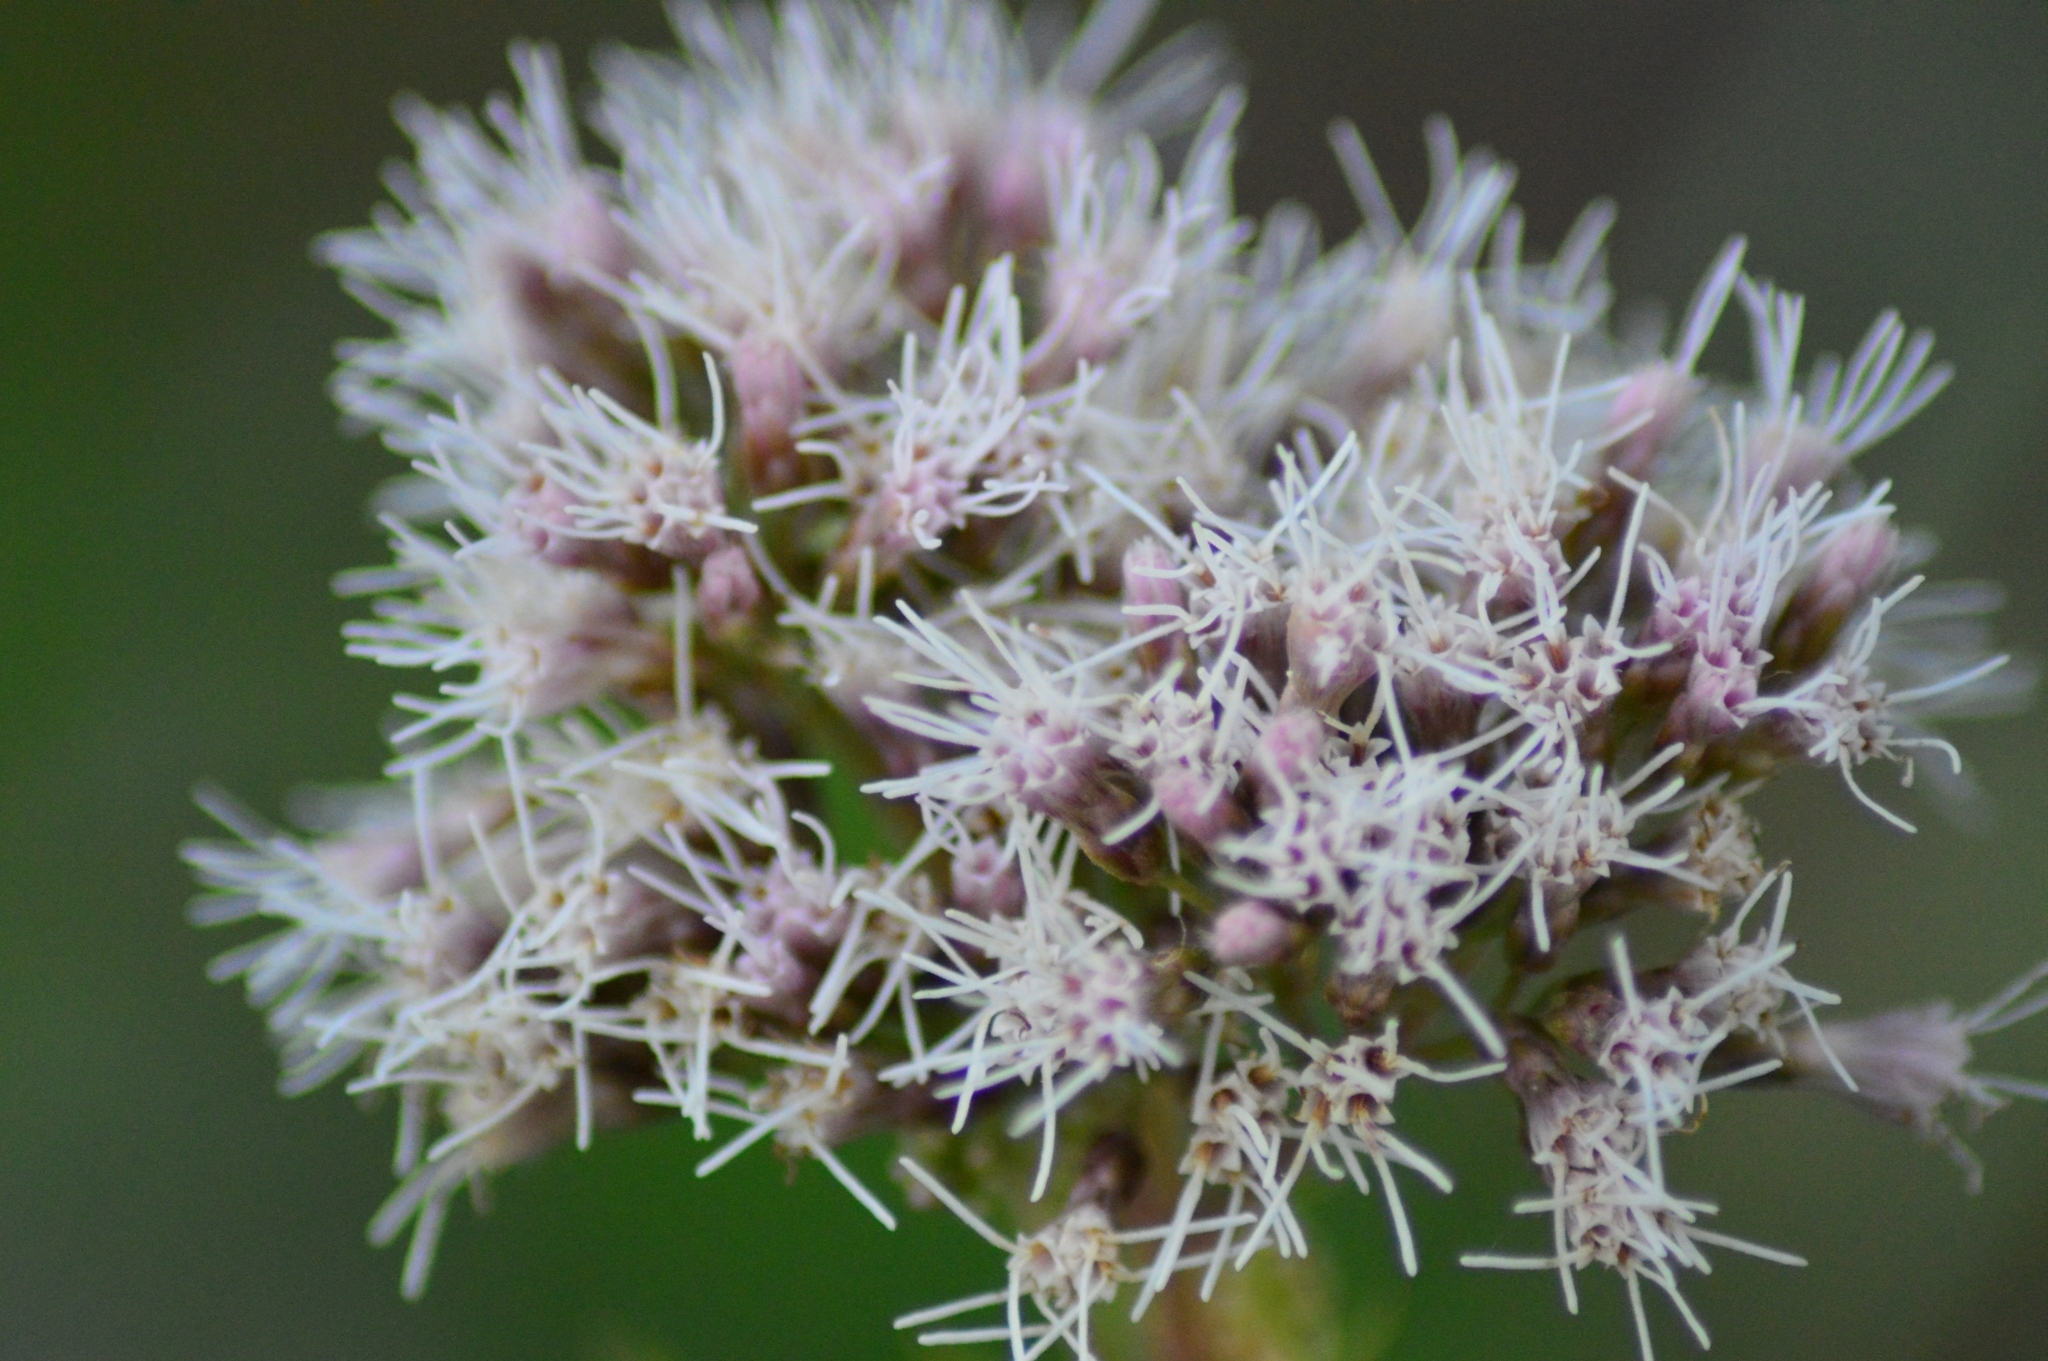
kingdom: Plantae
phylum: Tracheophyta
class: Magnoliopsida
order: Asterales
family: Asteraceae
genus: Eupatorium
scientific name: Eupatorium cannabinum
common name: Hemp-agrimony
